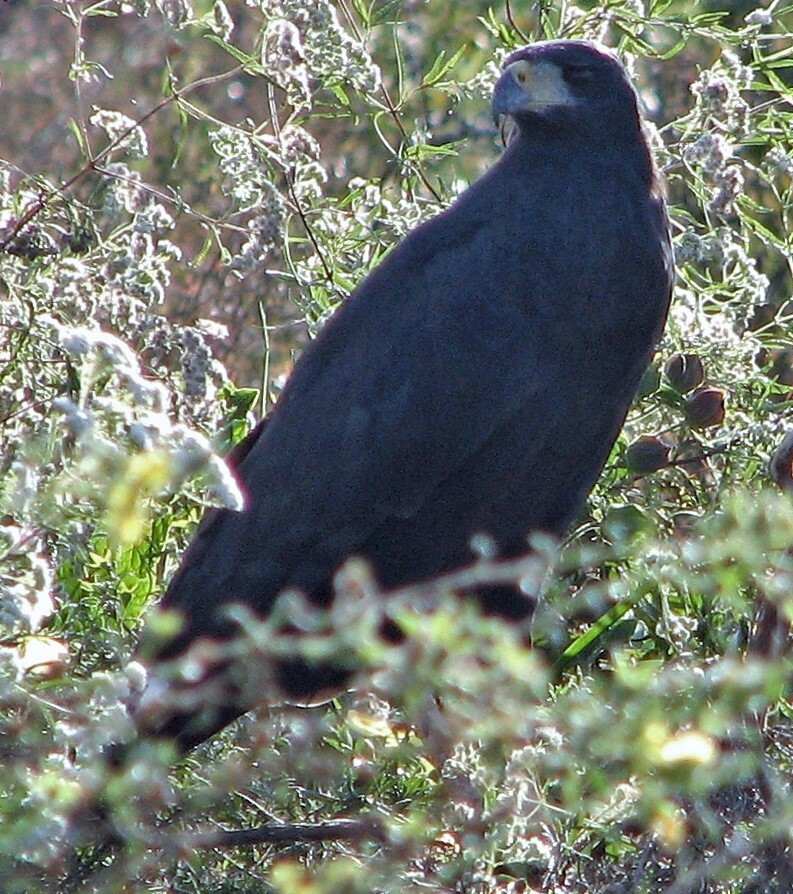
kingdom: Animalia
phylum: Chordata
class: Aves
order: Accipitriformes
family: Accipitridae
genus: Buteogallus
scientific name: Buteogallus urubitinga
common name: Great black hawk
